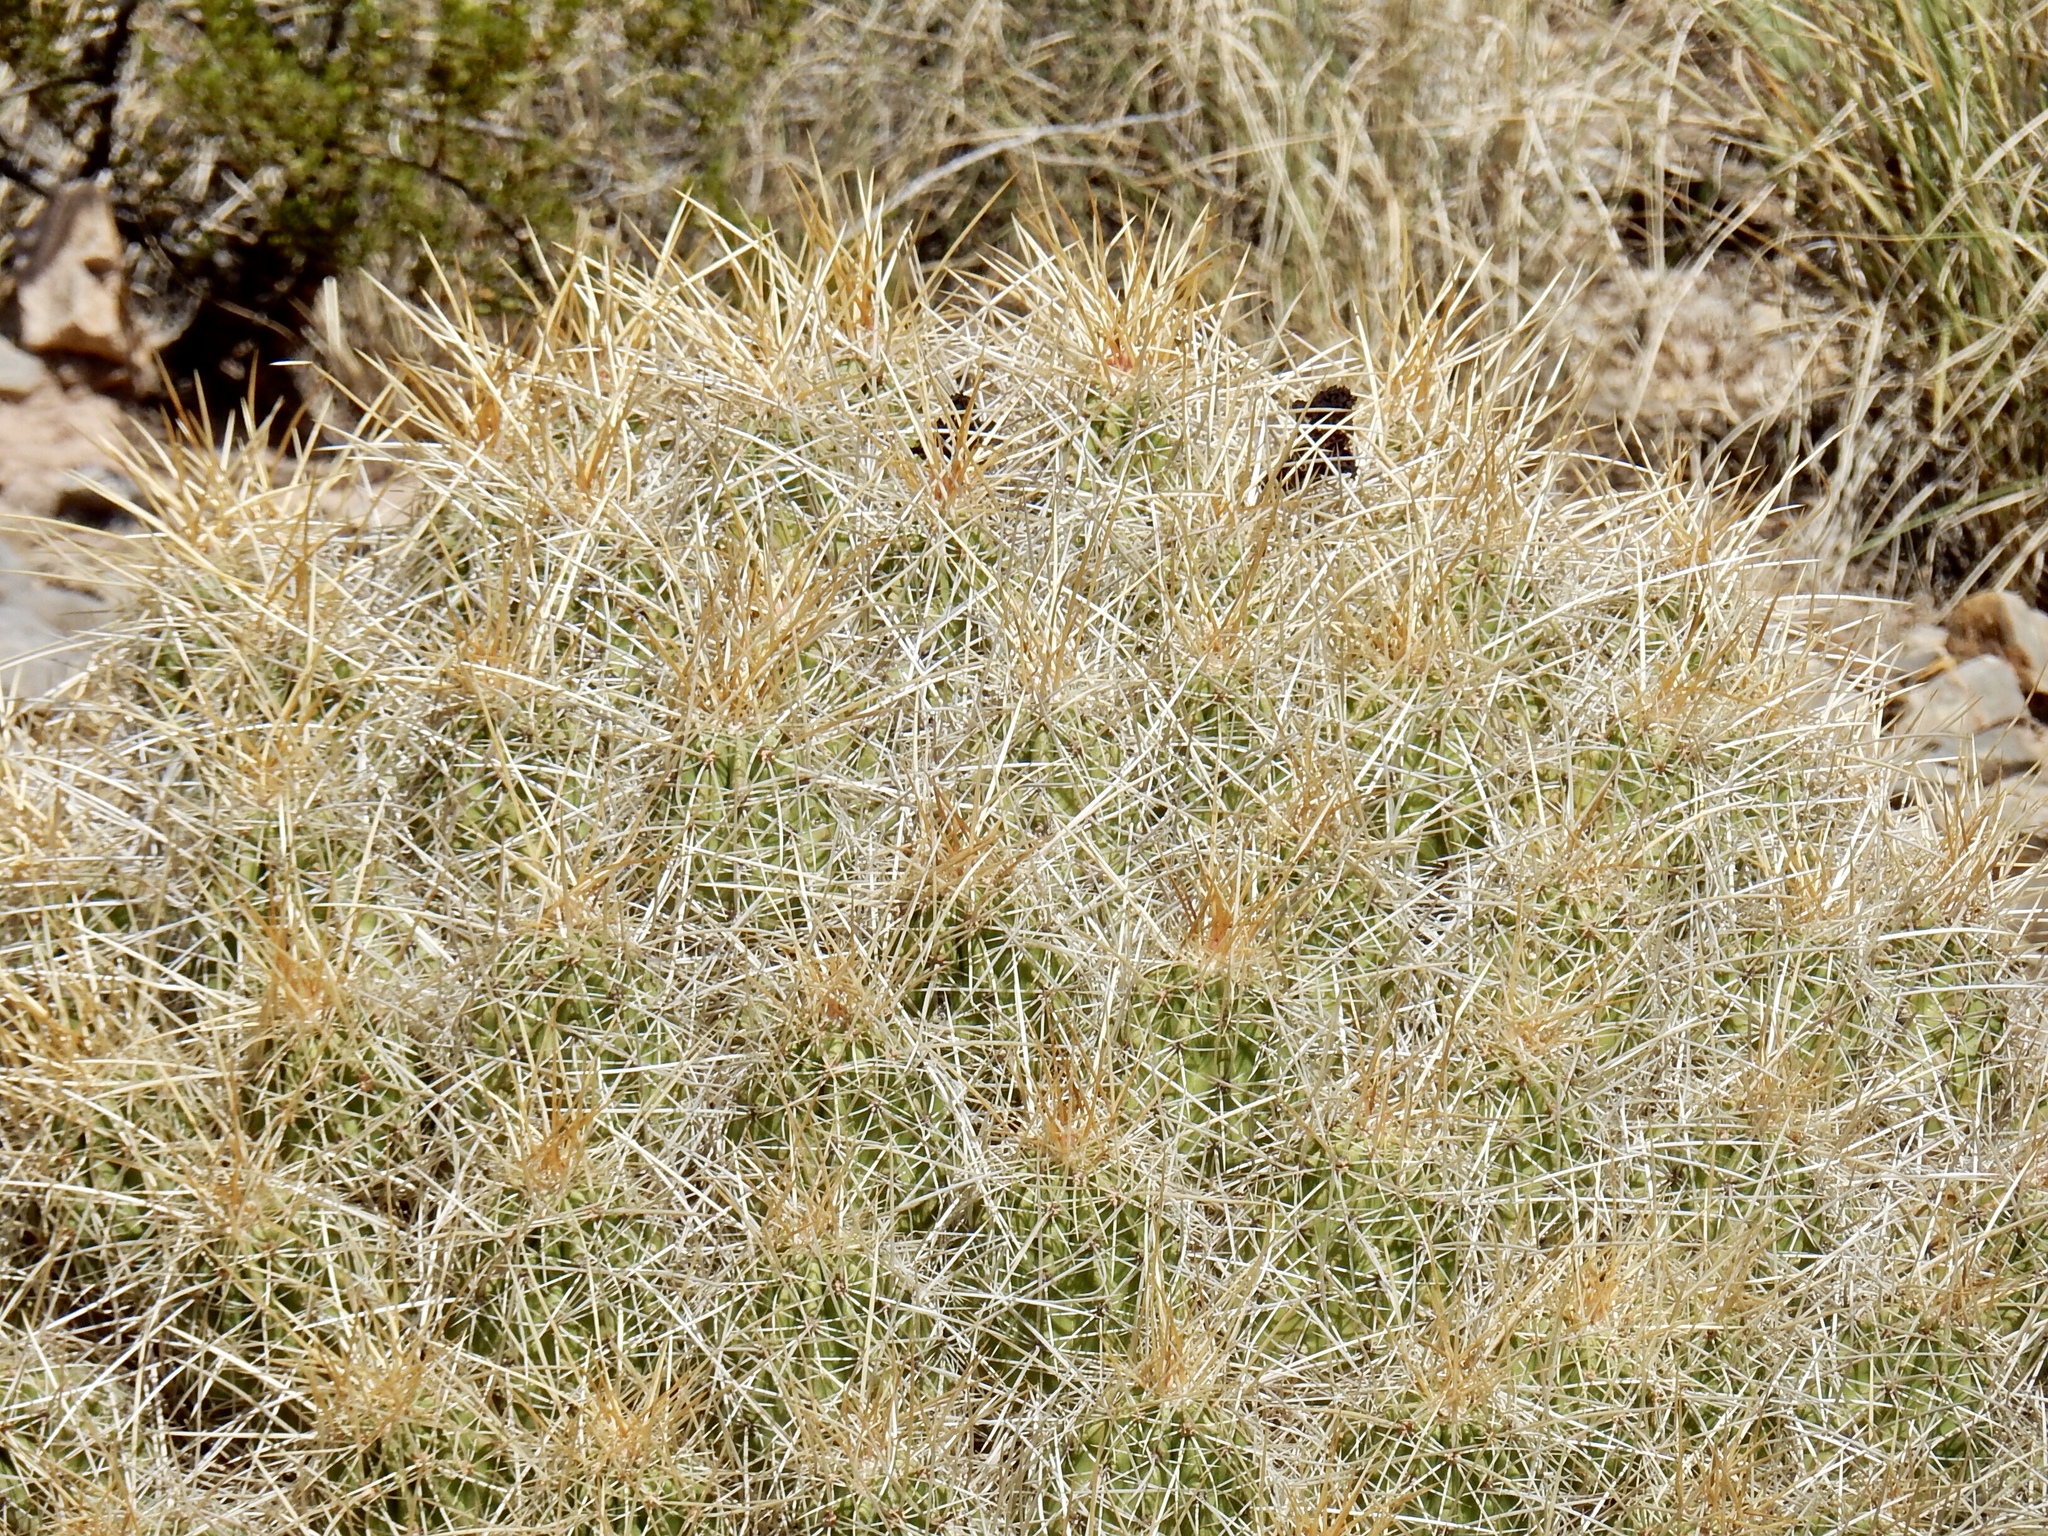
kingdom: Plantae
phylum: Tracheophyta
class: Magnoliopsida
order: Caryophyllales
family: Cactaceae
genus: Echinocereus
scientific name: Echinocereus stramineus
